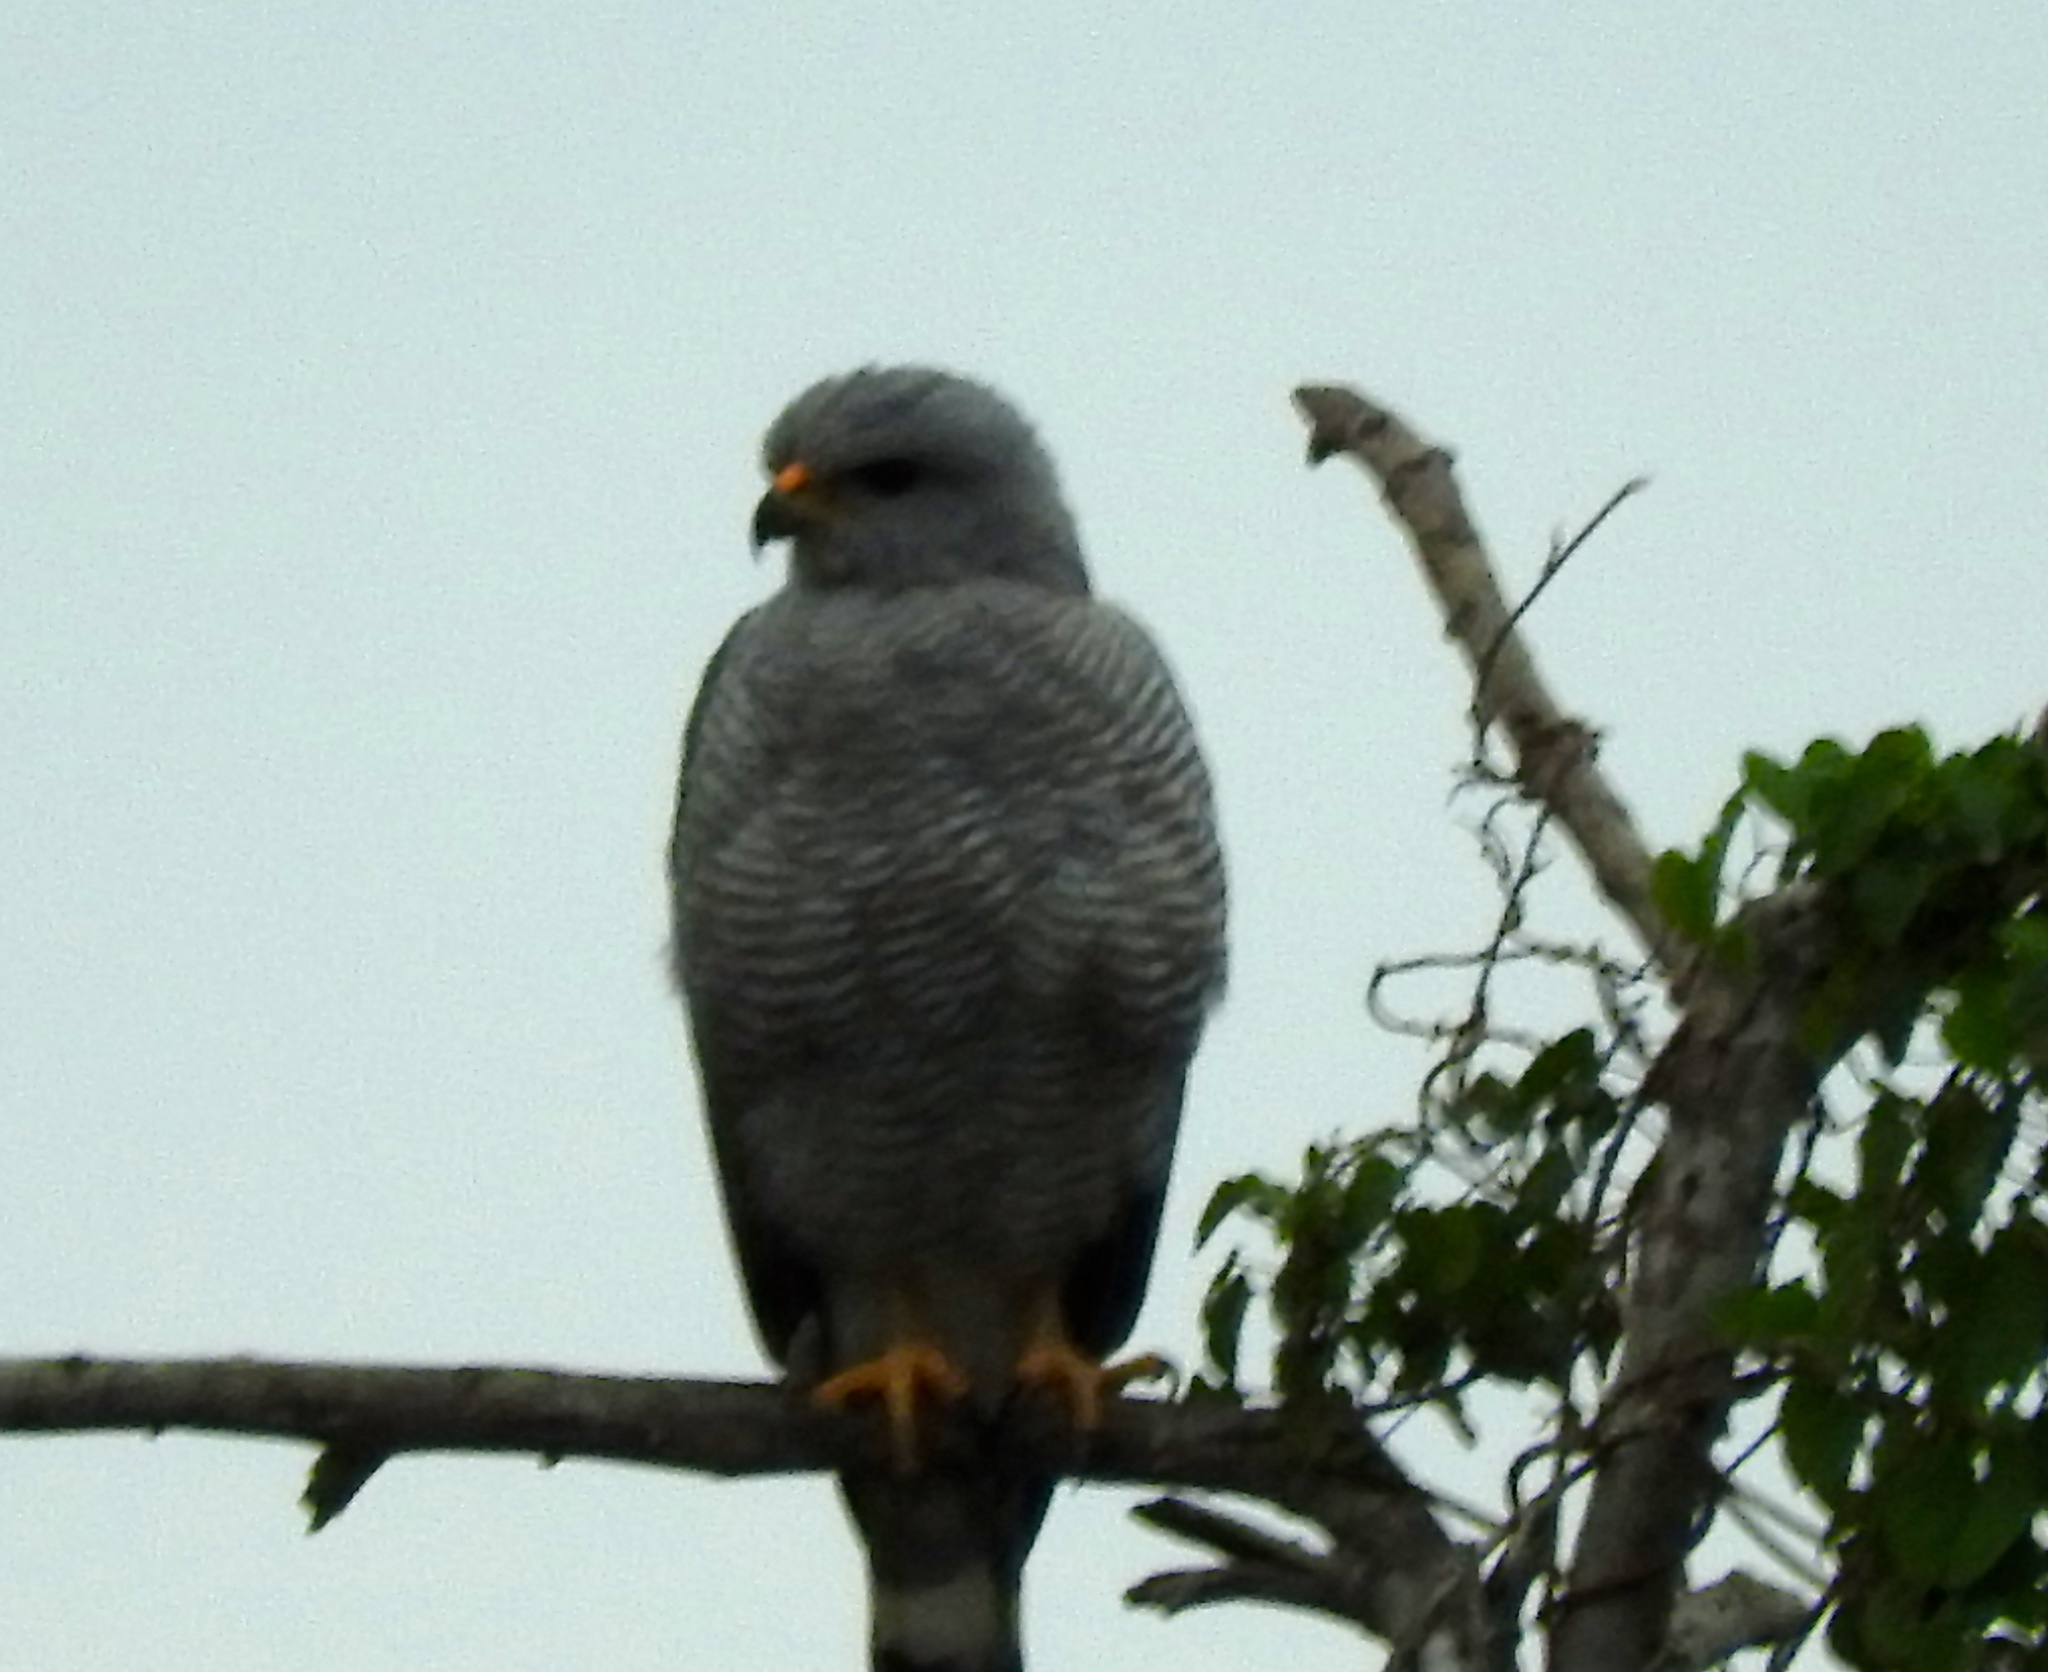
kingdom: Animalia
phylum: Chordata
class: Aves
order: Accipitriformes
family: Accipitridae
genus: Buteo
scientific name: Buteo nitidus
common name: Grey-lined hawk
